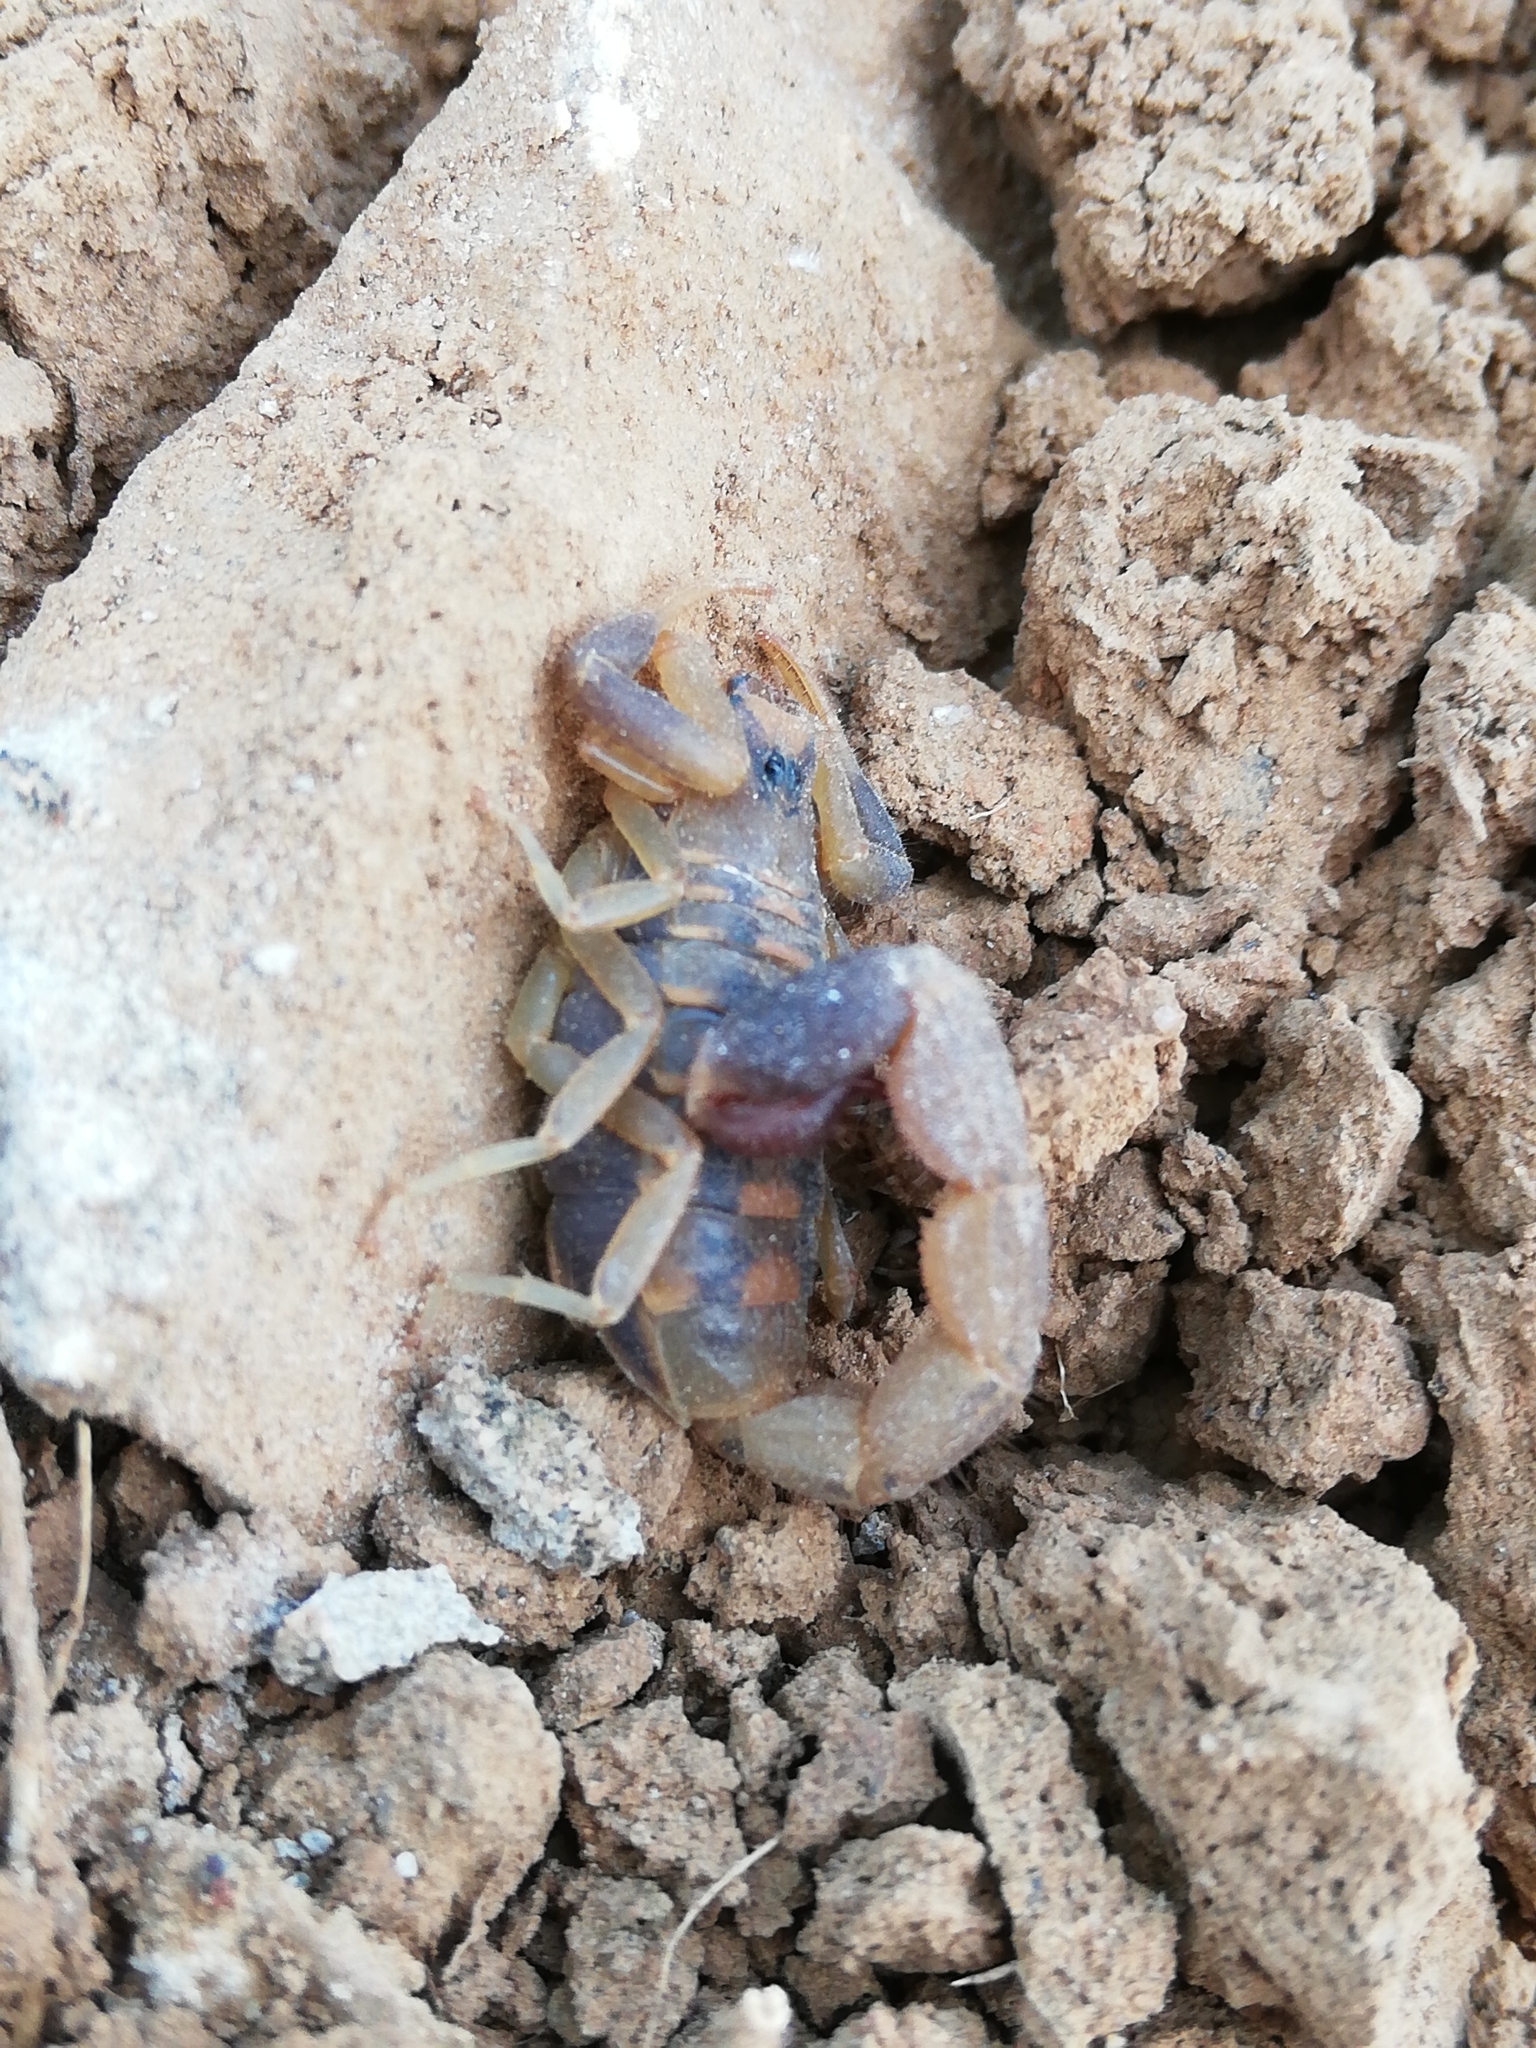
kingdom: Animalia
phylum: Arthropoda
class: Arachnida
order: Scorpiones
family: Buthidae
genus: Uroplectes
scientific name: Uroplectes triangulifer
